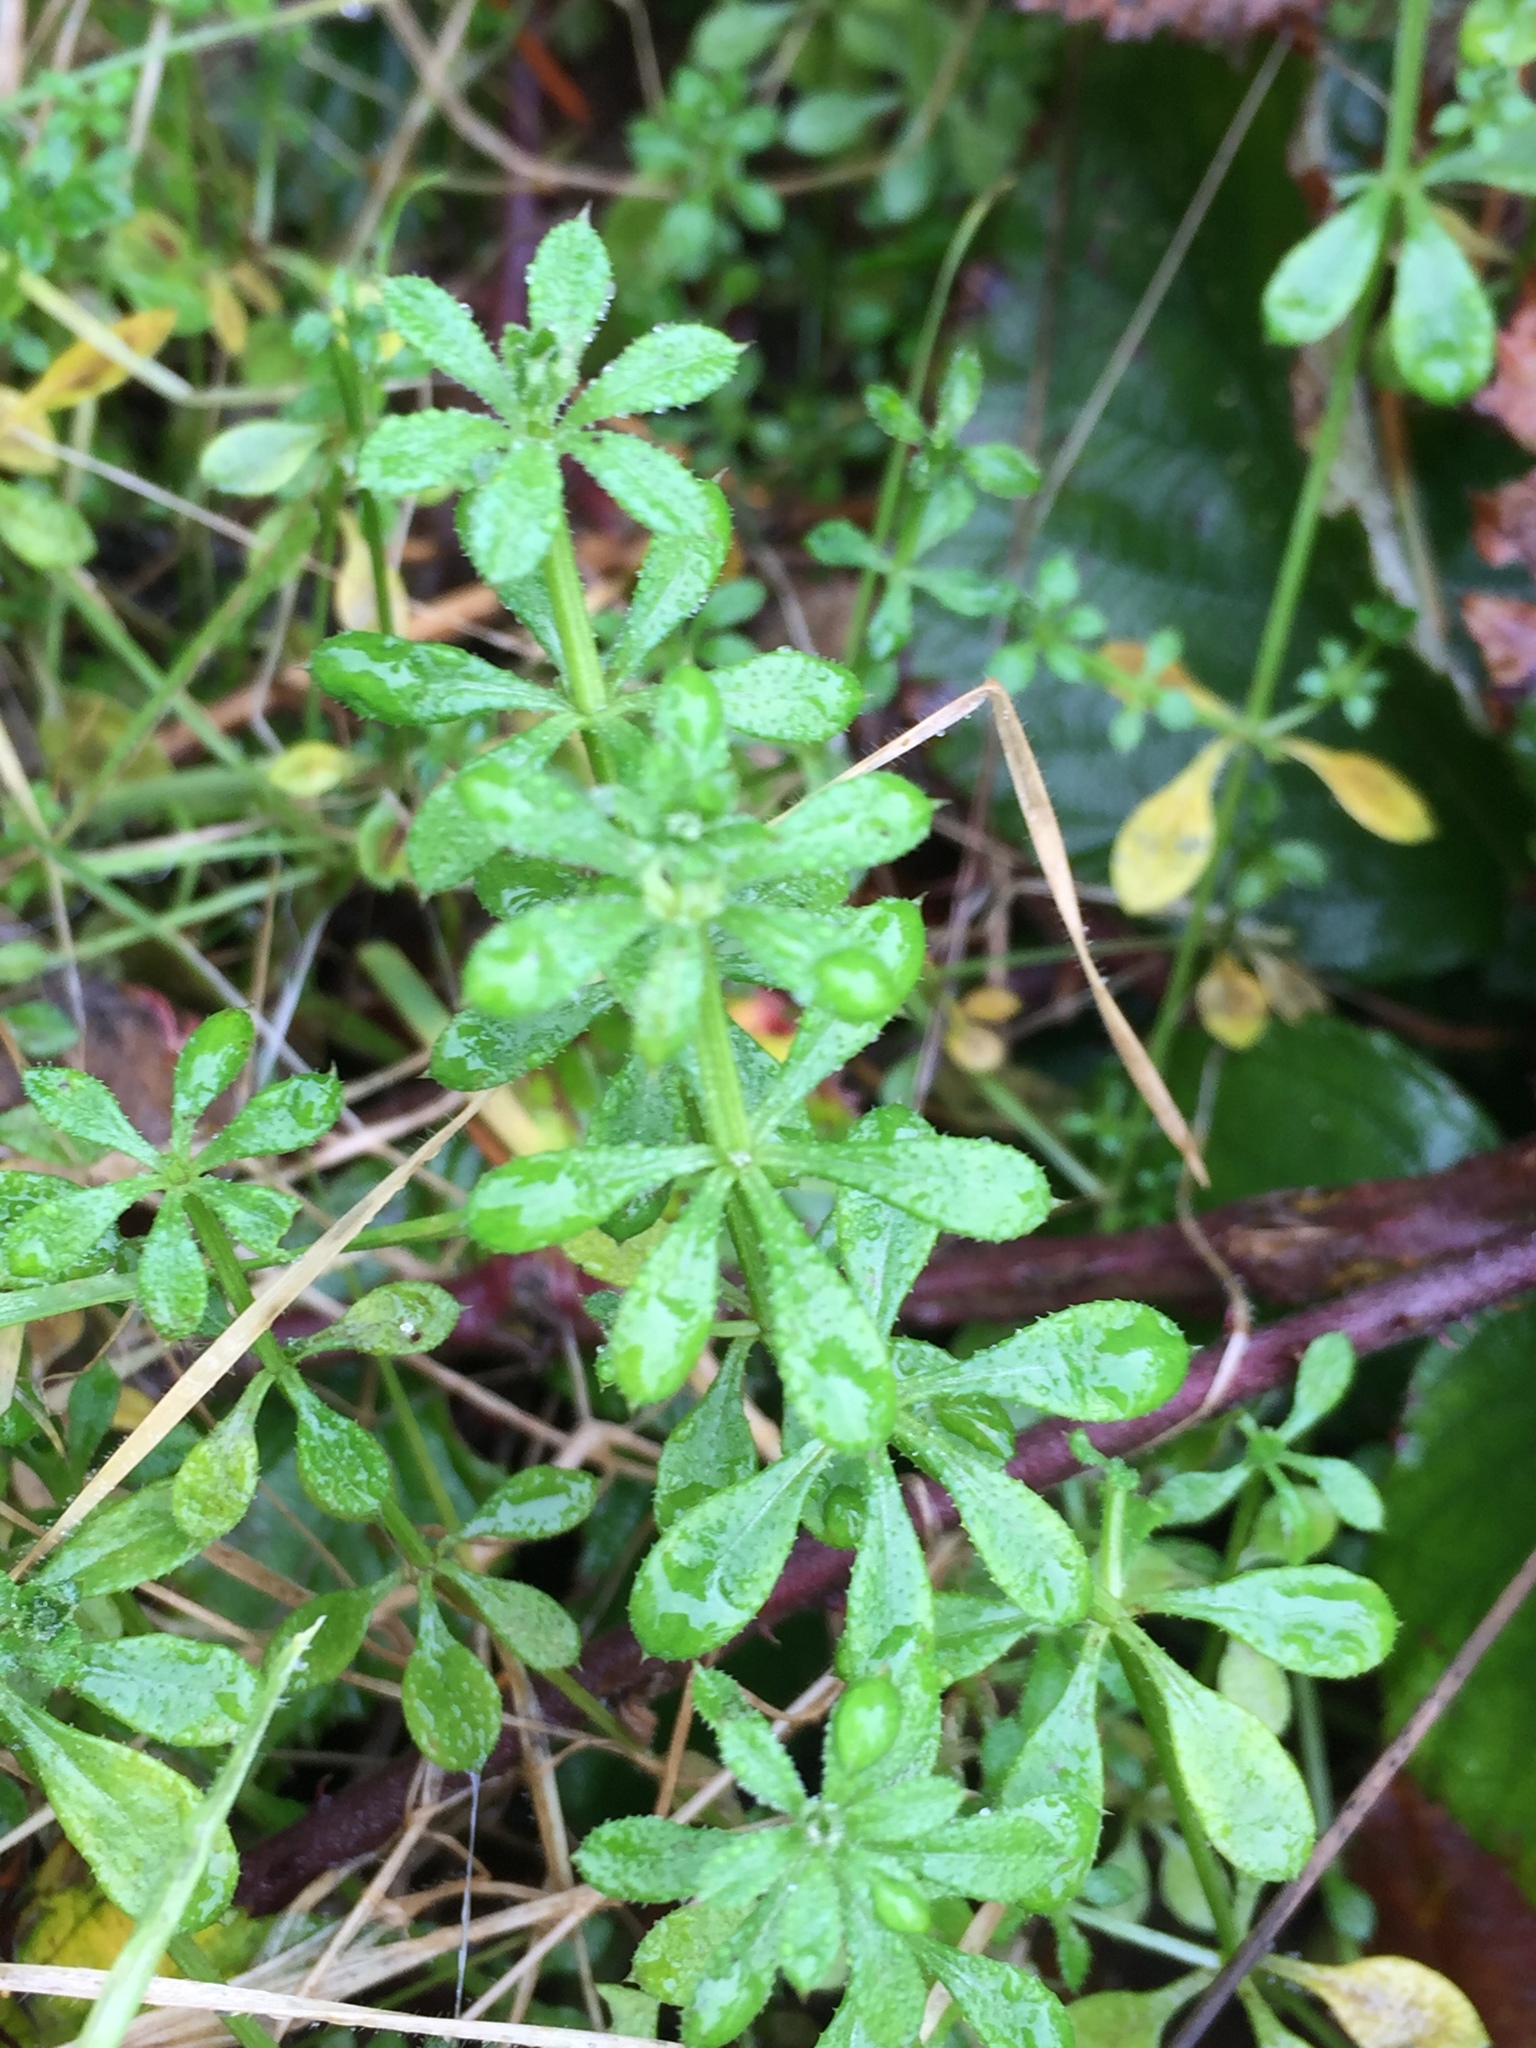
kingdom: Plantae
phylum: Tracheophyta
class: Magnoliopsida
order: Gentianales
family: Rubiaceae
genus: Galium
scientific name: Galium aparine
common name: Cleavers
